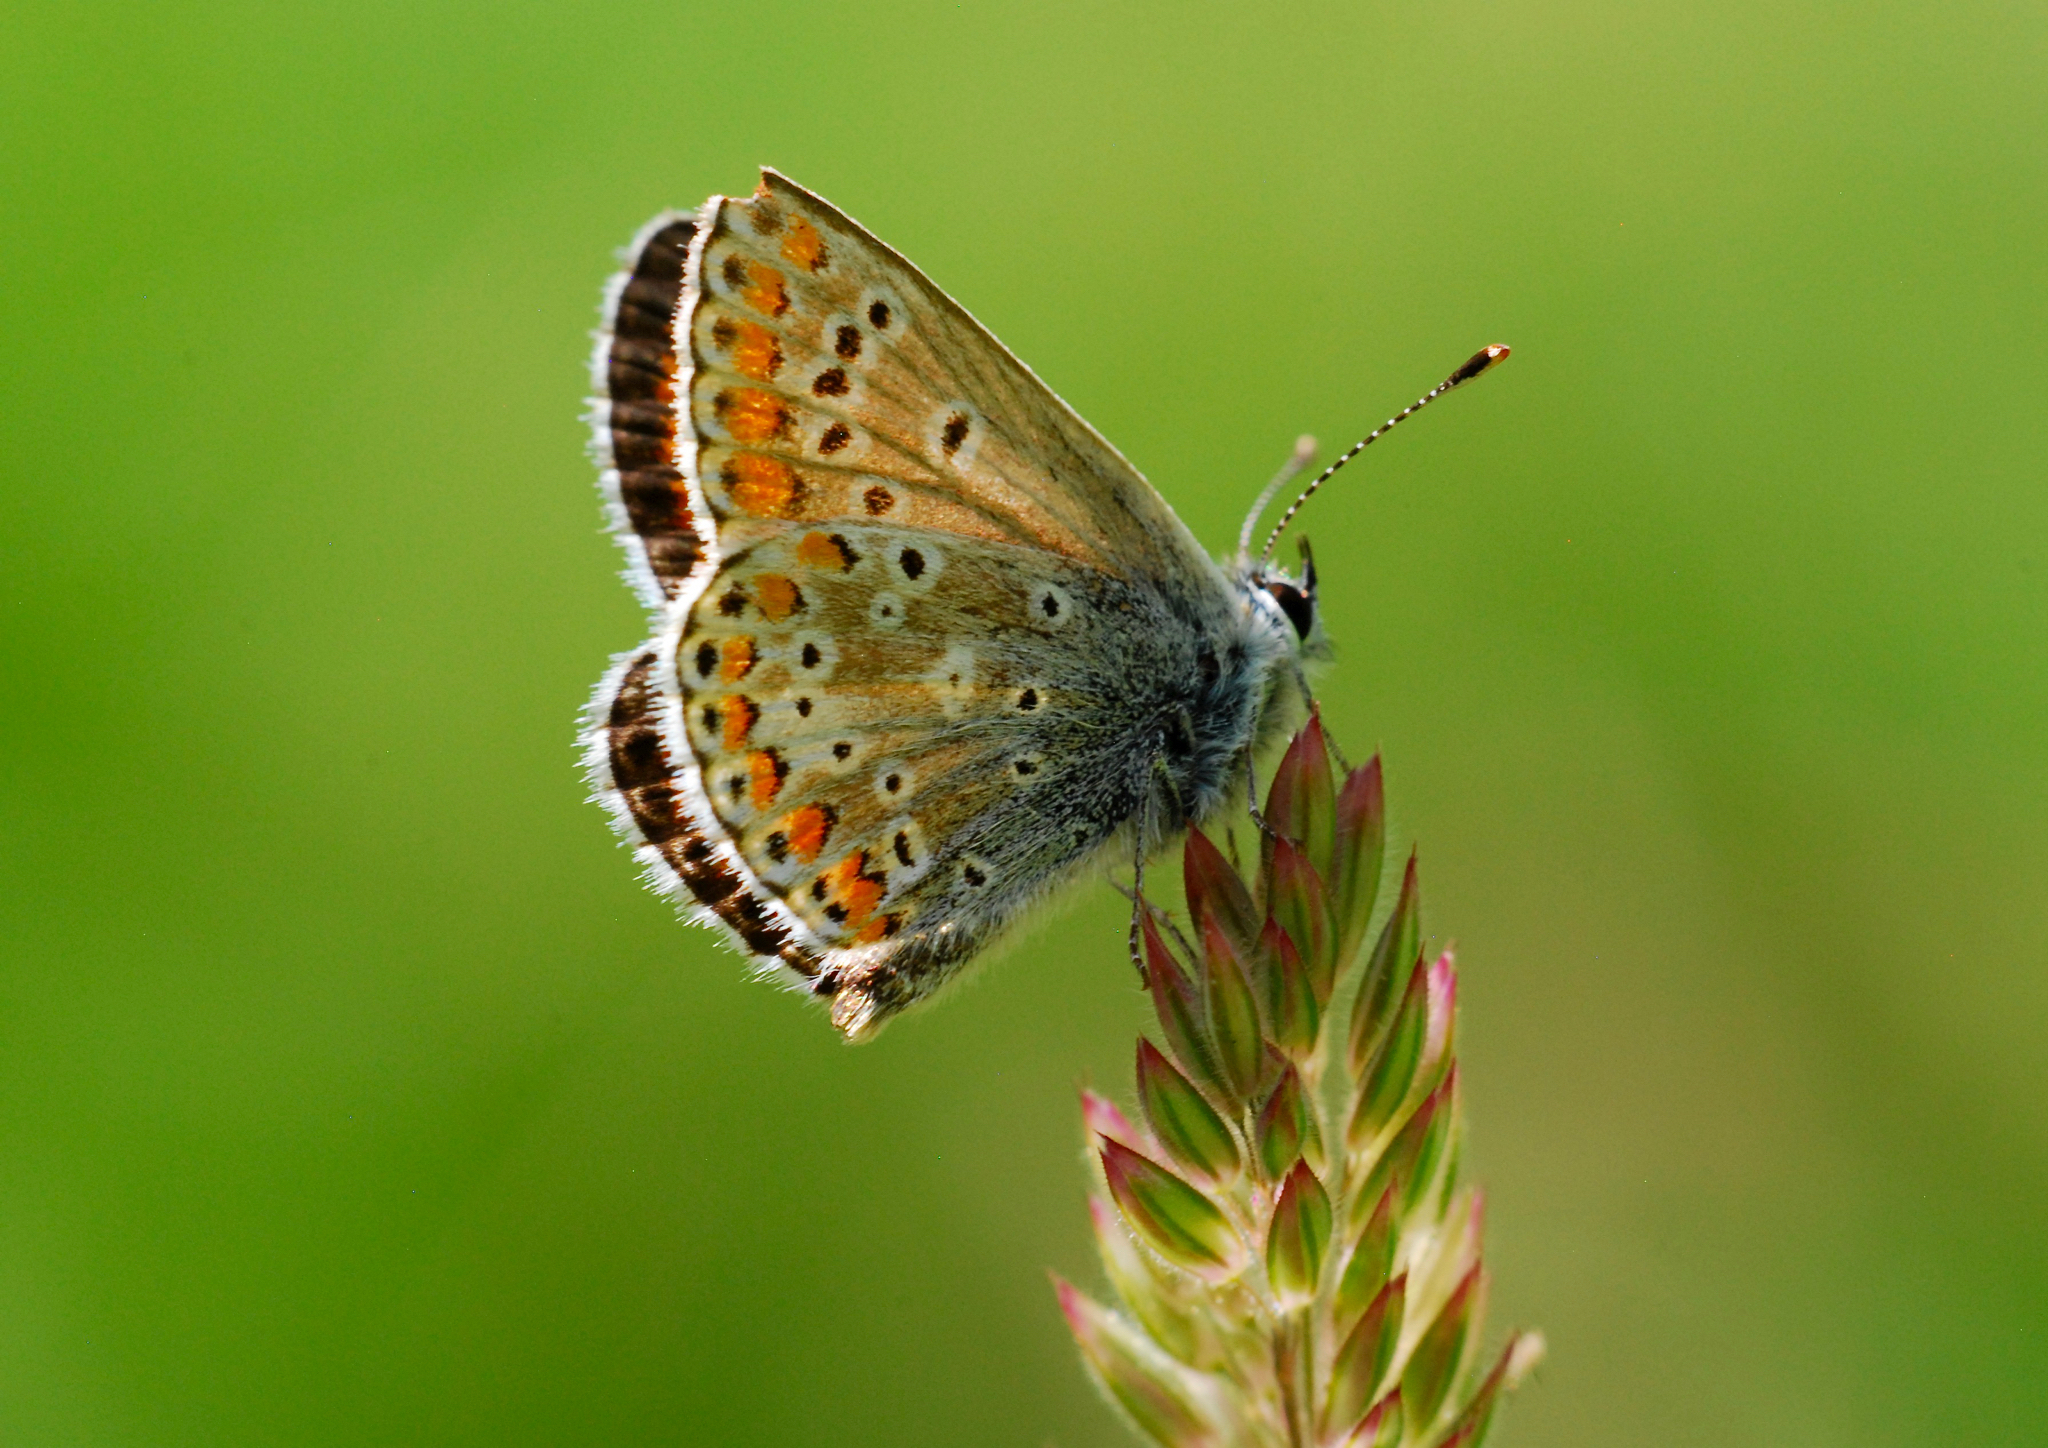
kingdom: Animalia
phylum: Arthropoda
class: Insecta
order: Lepidoptera
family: Lycaenidae
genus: Aricia
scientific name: Aricia agestis
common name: Brown argus
